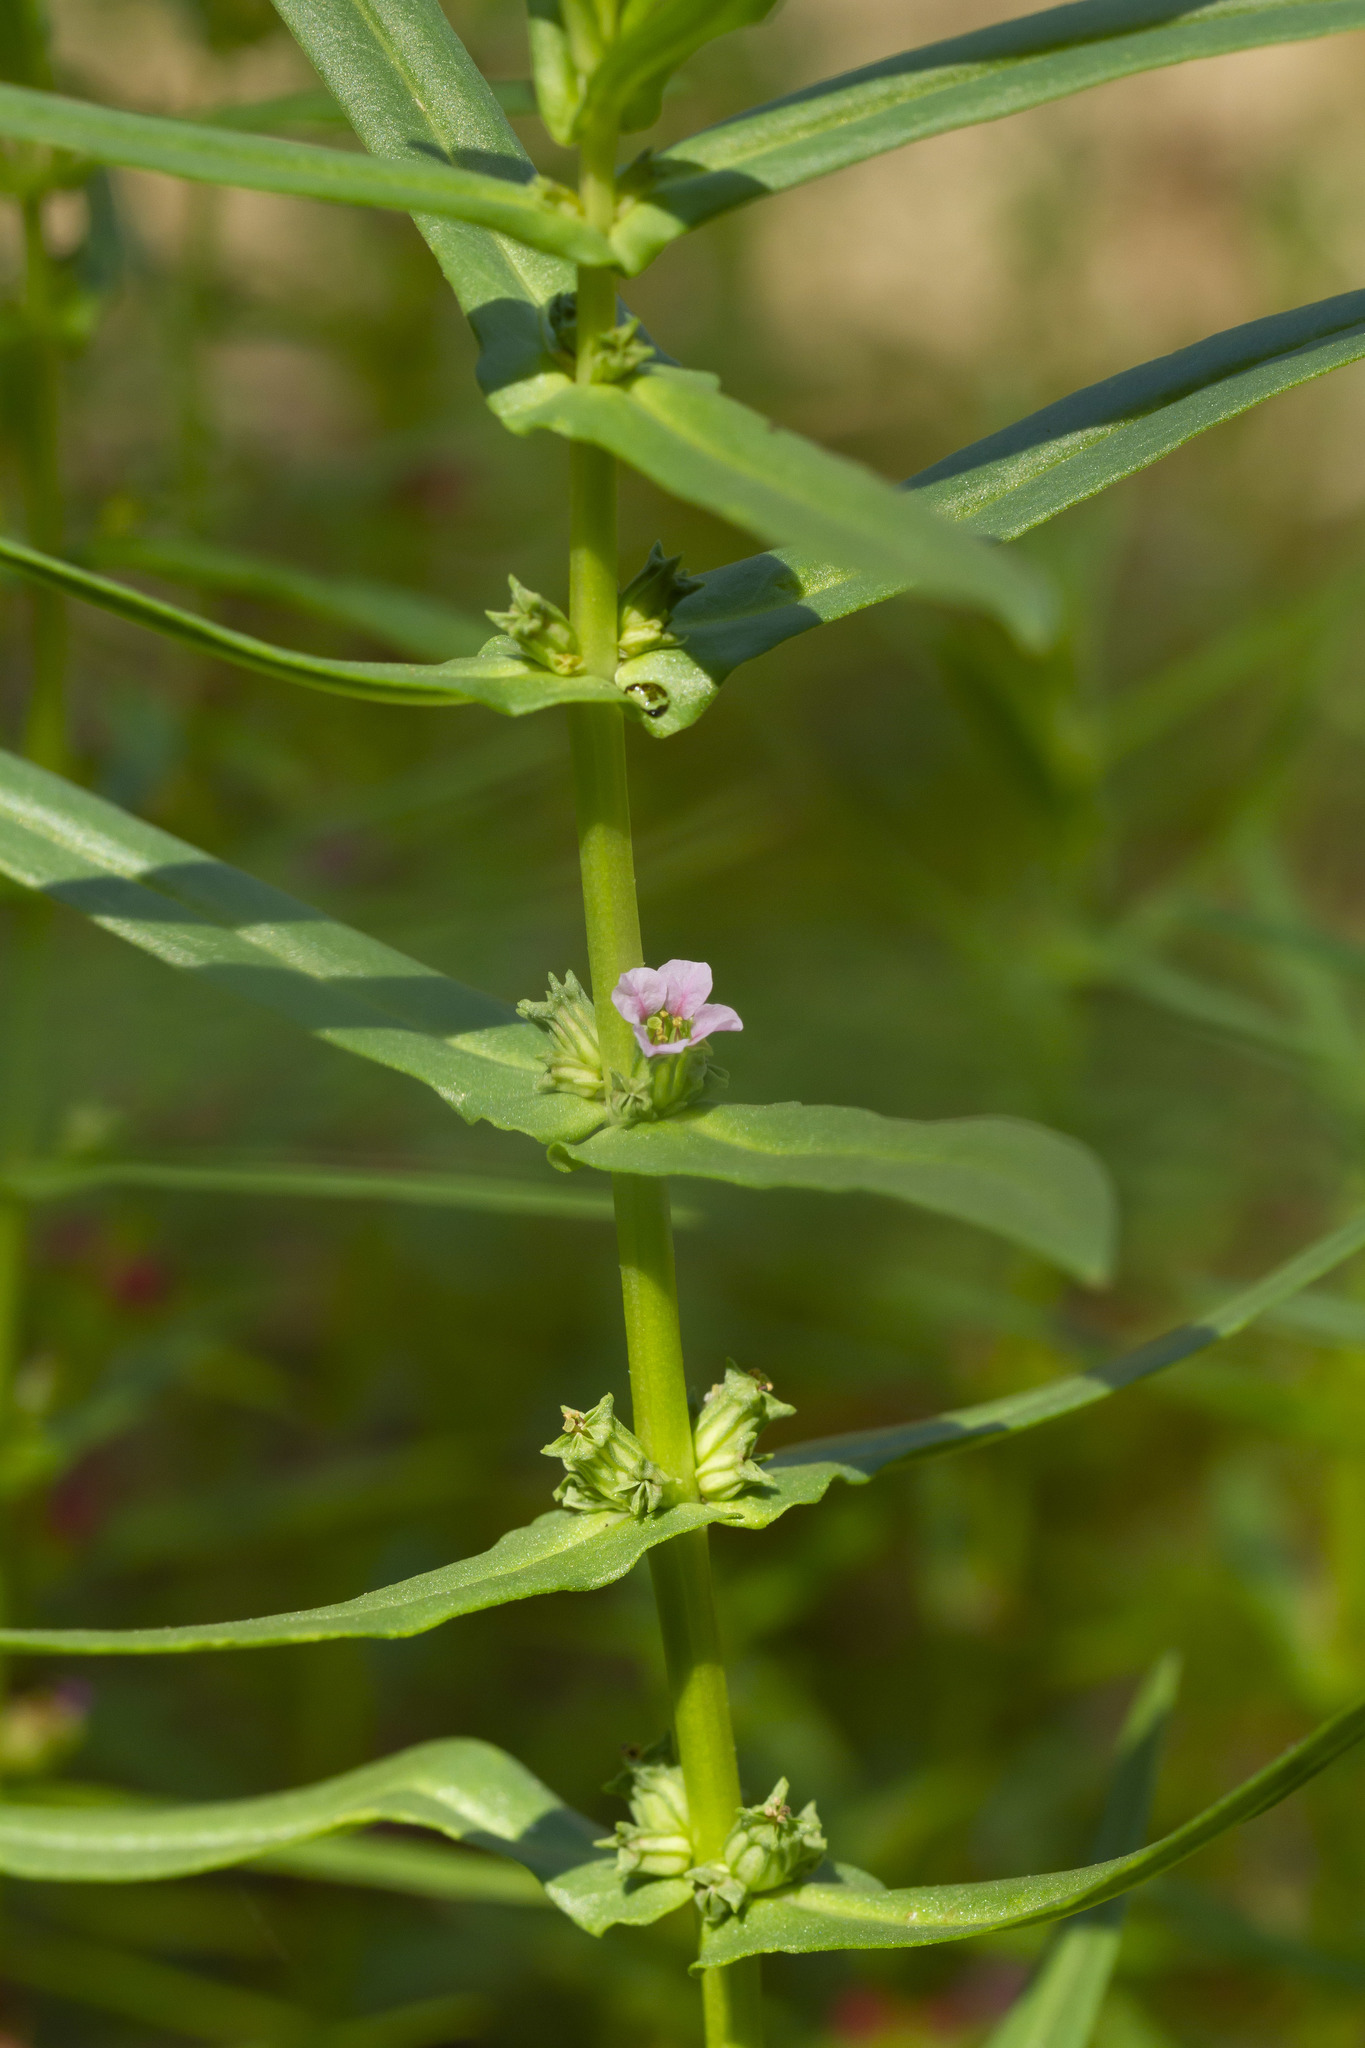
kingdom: Plantae
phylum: Tracheophyta
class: Magnoliopsida
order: Myrtales
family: Lythraceae
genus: Ammannia
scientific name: Ammannia coccinea
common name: Valley redstem
